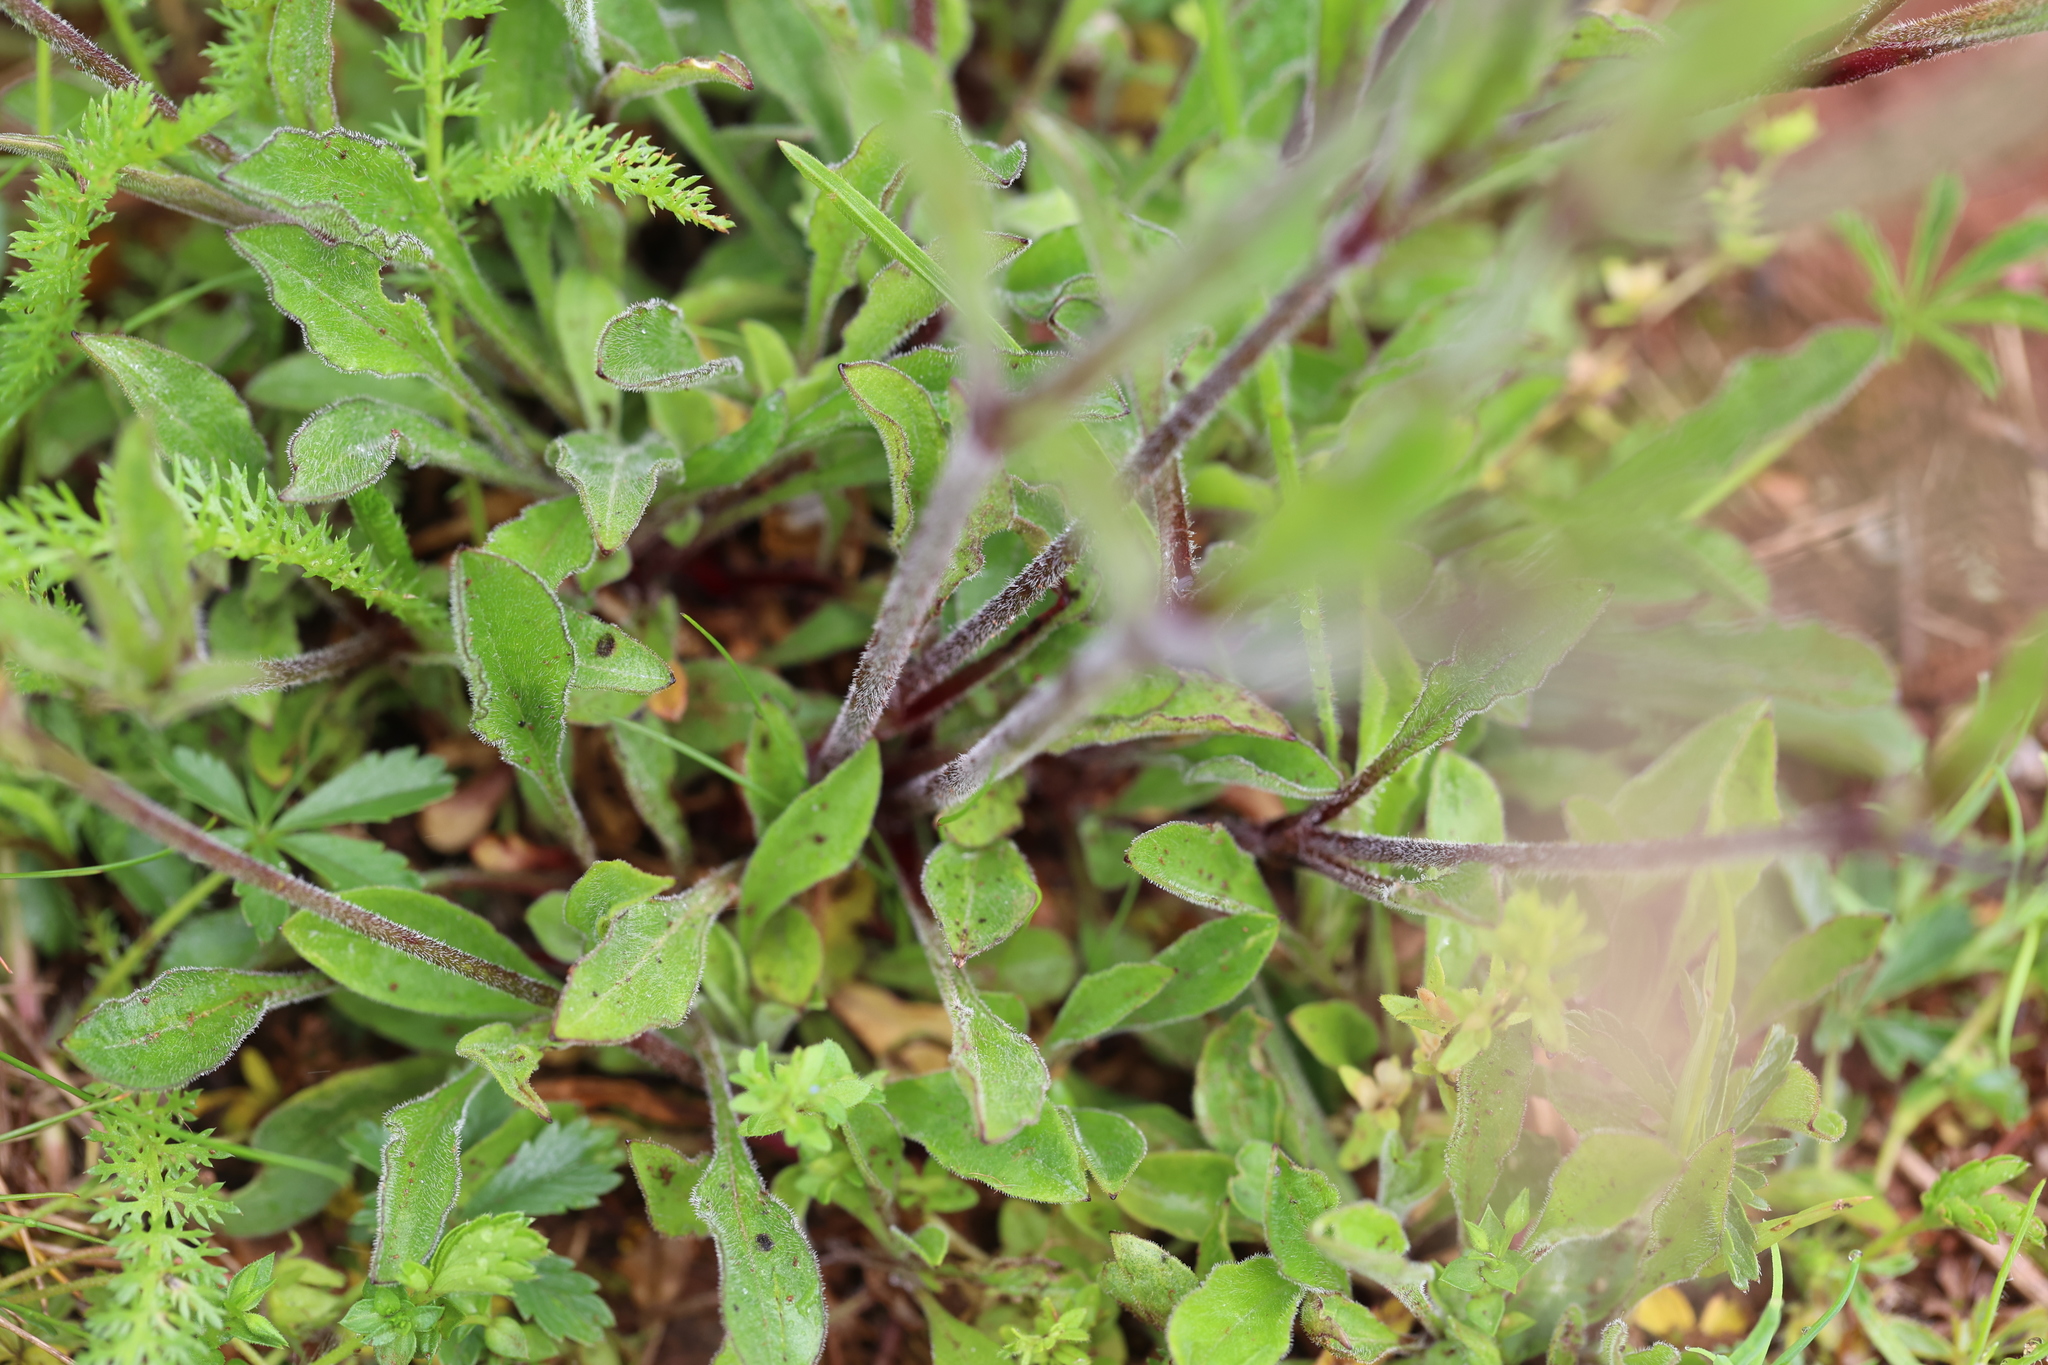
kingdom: Plantae
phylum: Tracheophyta
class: Magnoliopsida
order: Caryophyllales
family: Caryophyllaceae
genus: Silene
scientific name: Silene nutans
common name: Nottingham catchfly
